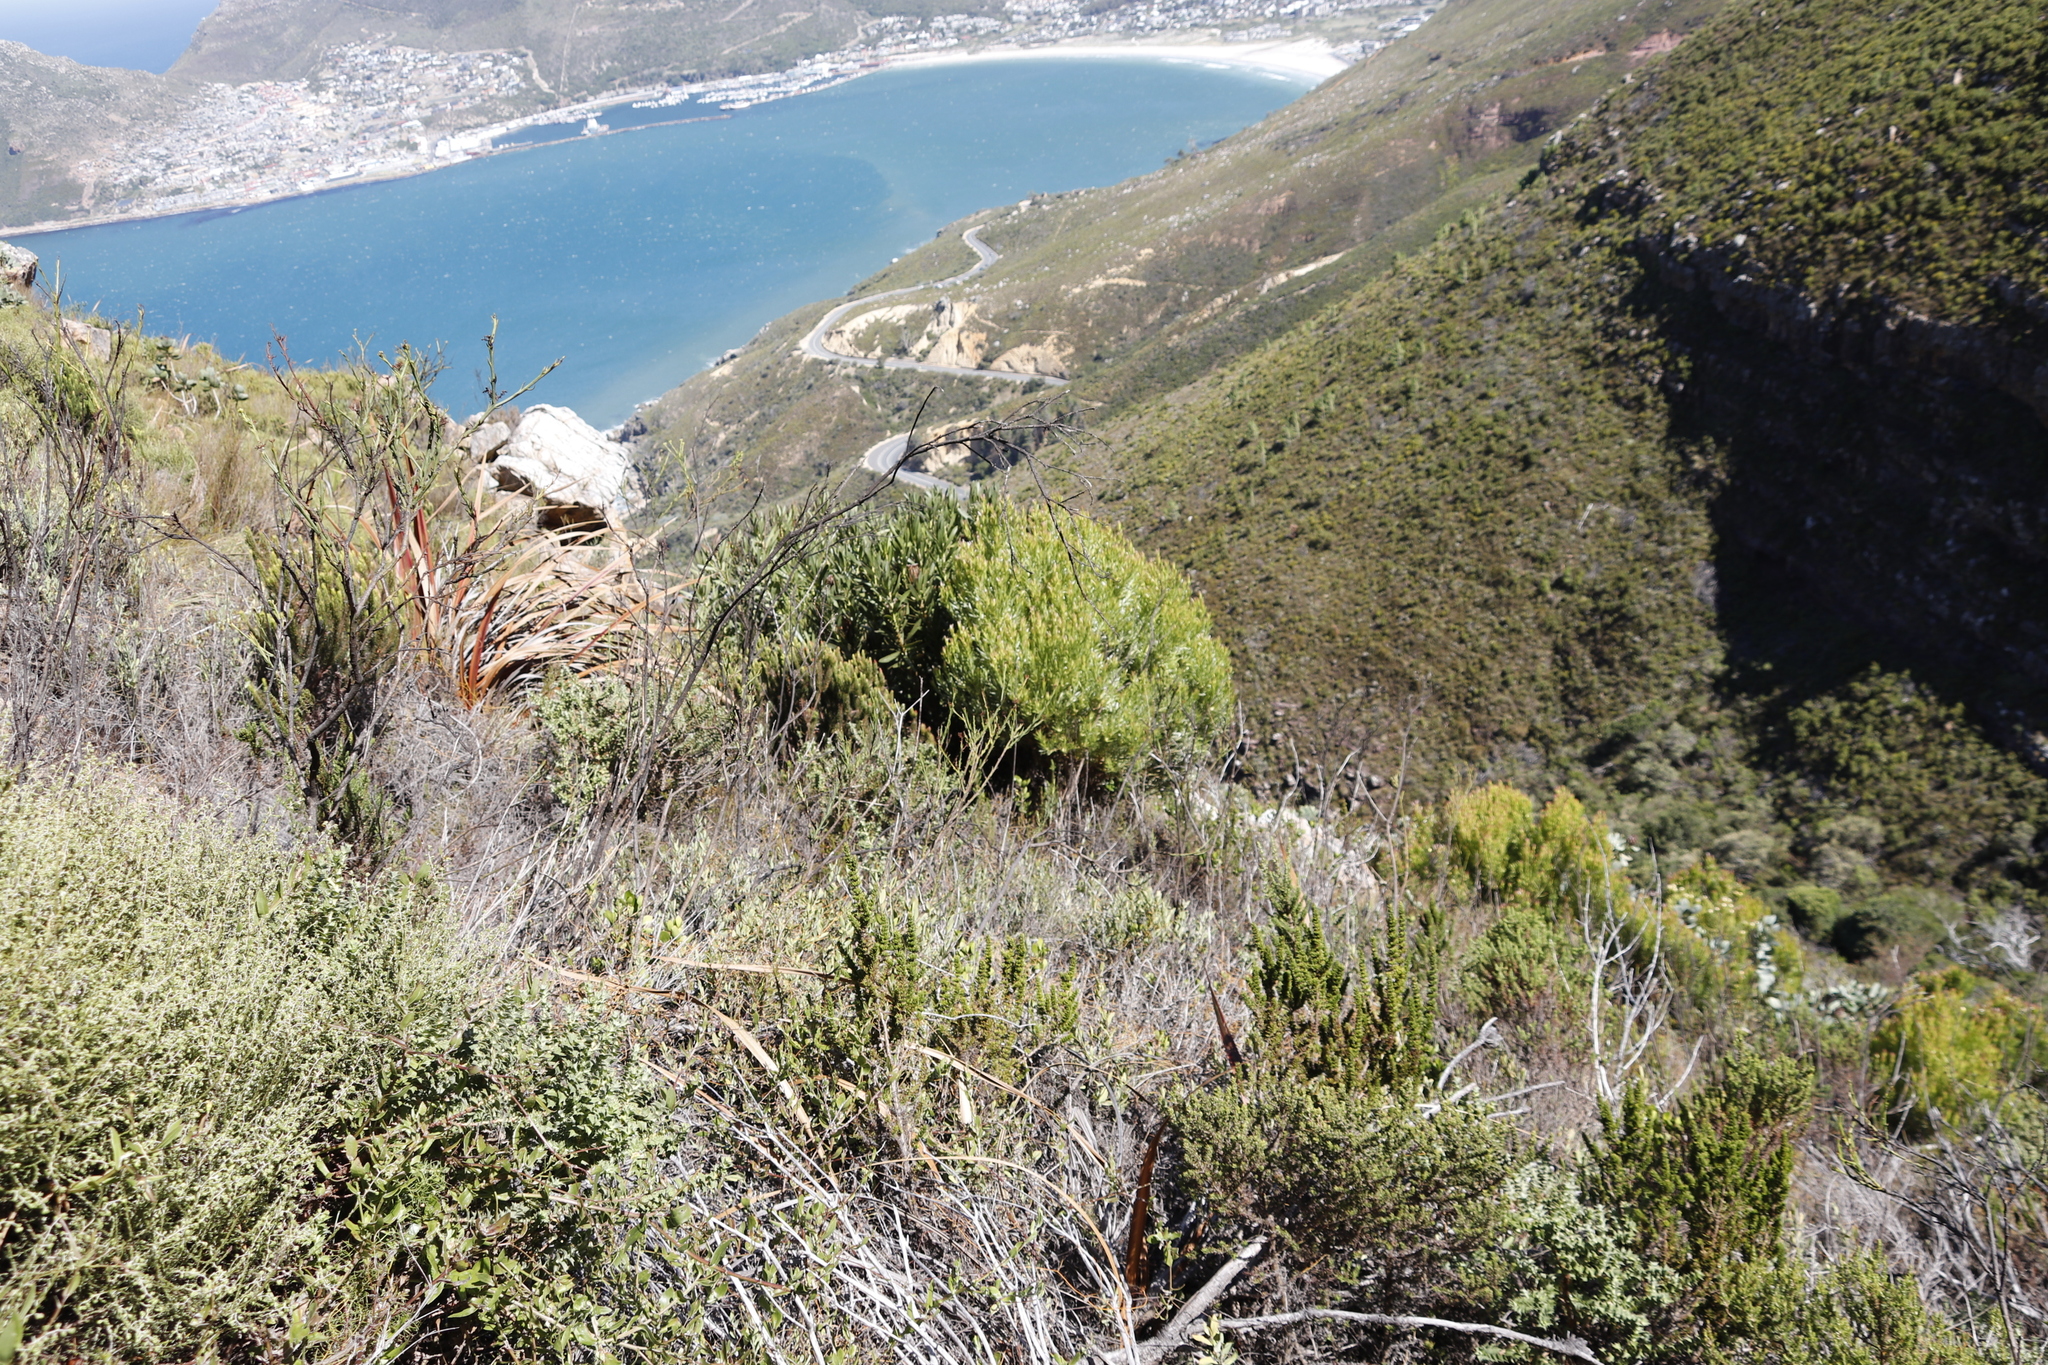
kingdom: Plantae
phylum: Tracheophyta
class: Magnoliopsida
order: Proteales
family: Proteaceae
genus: Leucadendron
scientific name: Leucadendron xanthoconus
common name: Sickle-leaf conebush
